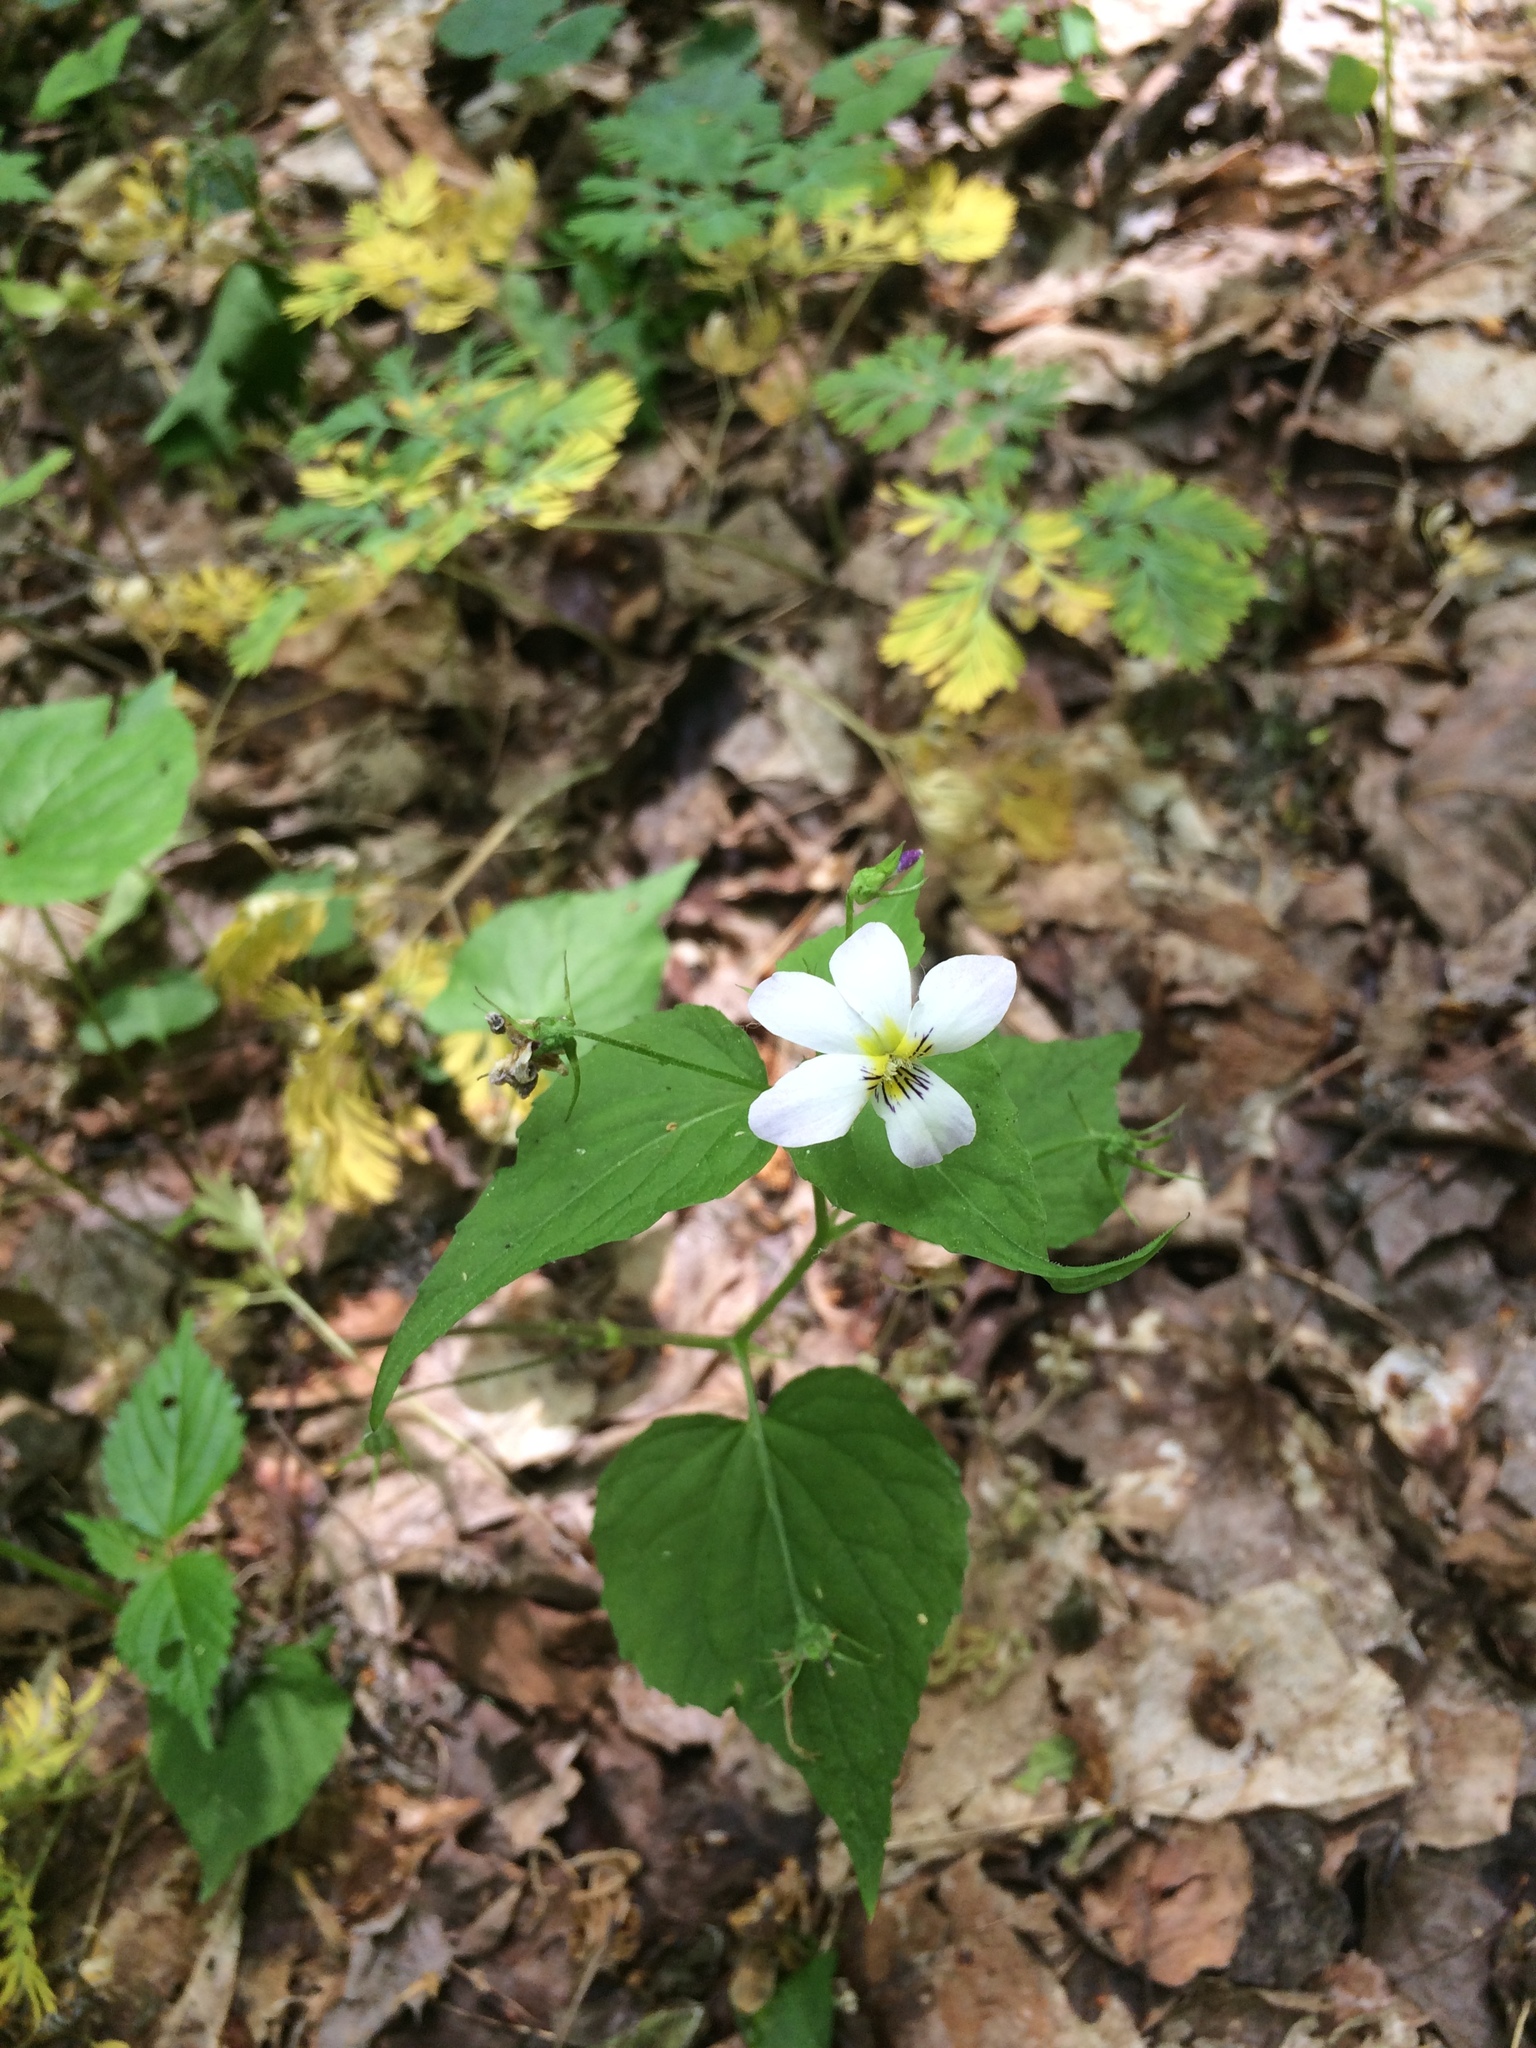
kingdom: Plantae
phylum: Tracheophyta
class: Magnoliopsida
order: Malpighiales
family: Violaceae
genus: Viola
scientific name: Viola canadensis
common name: Canada violet
